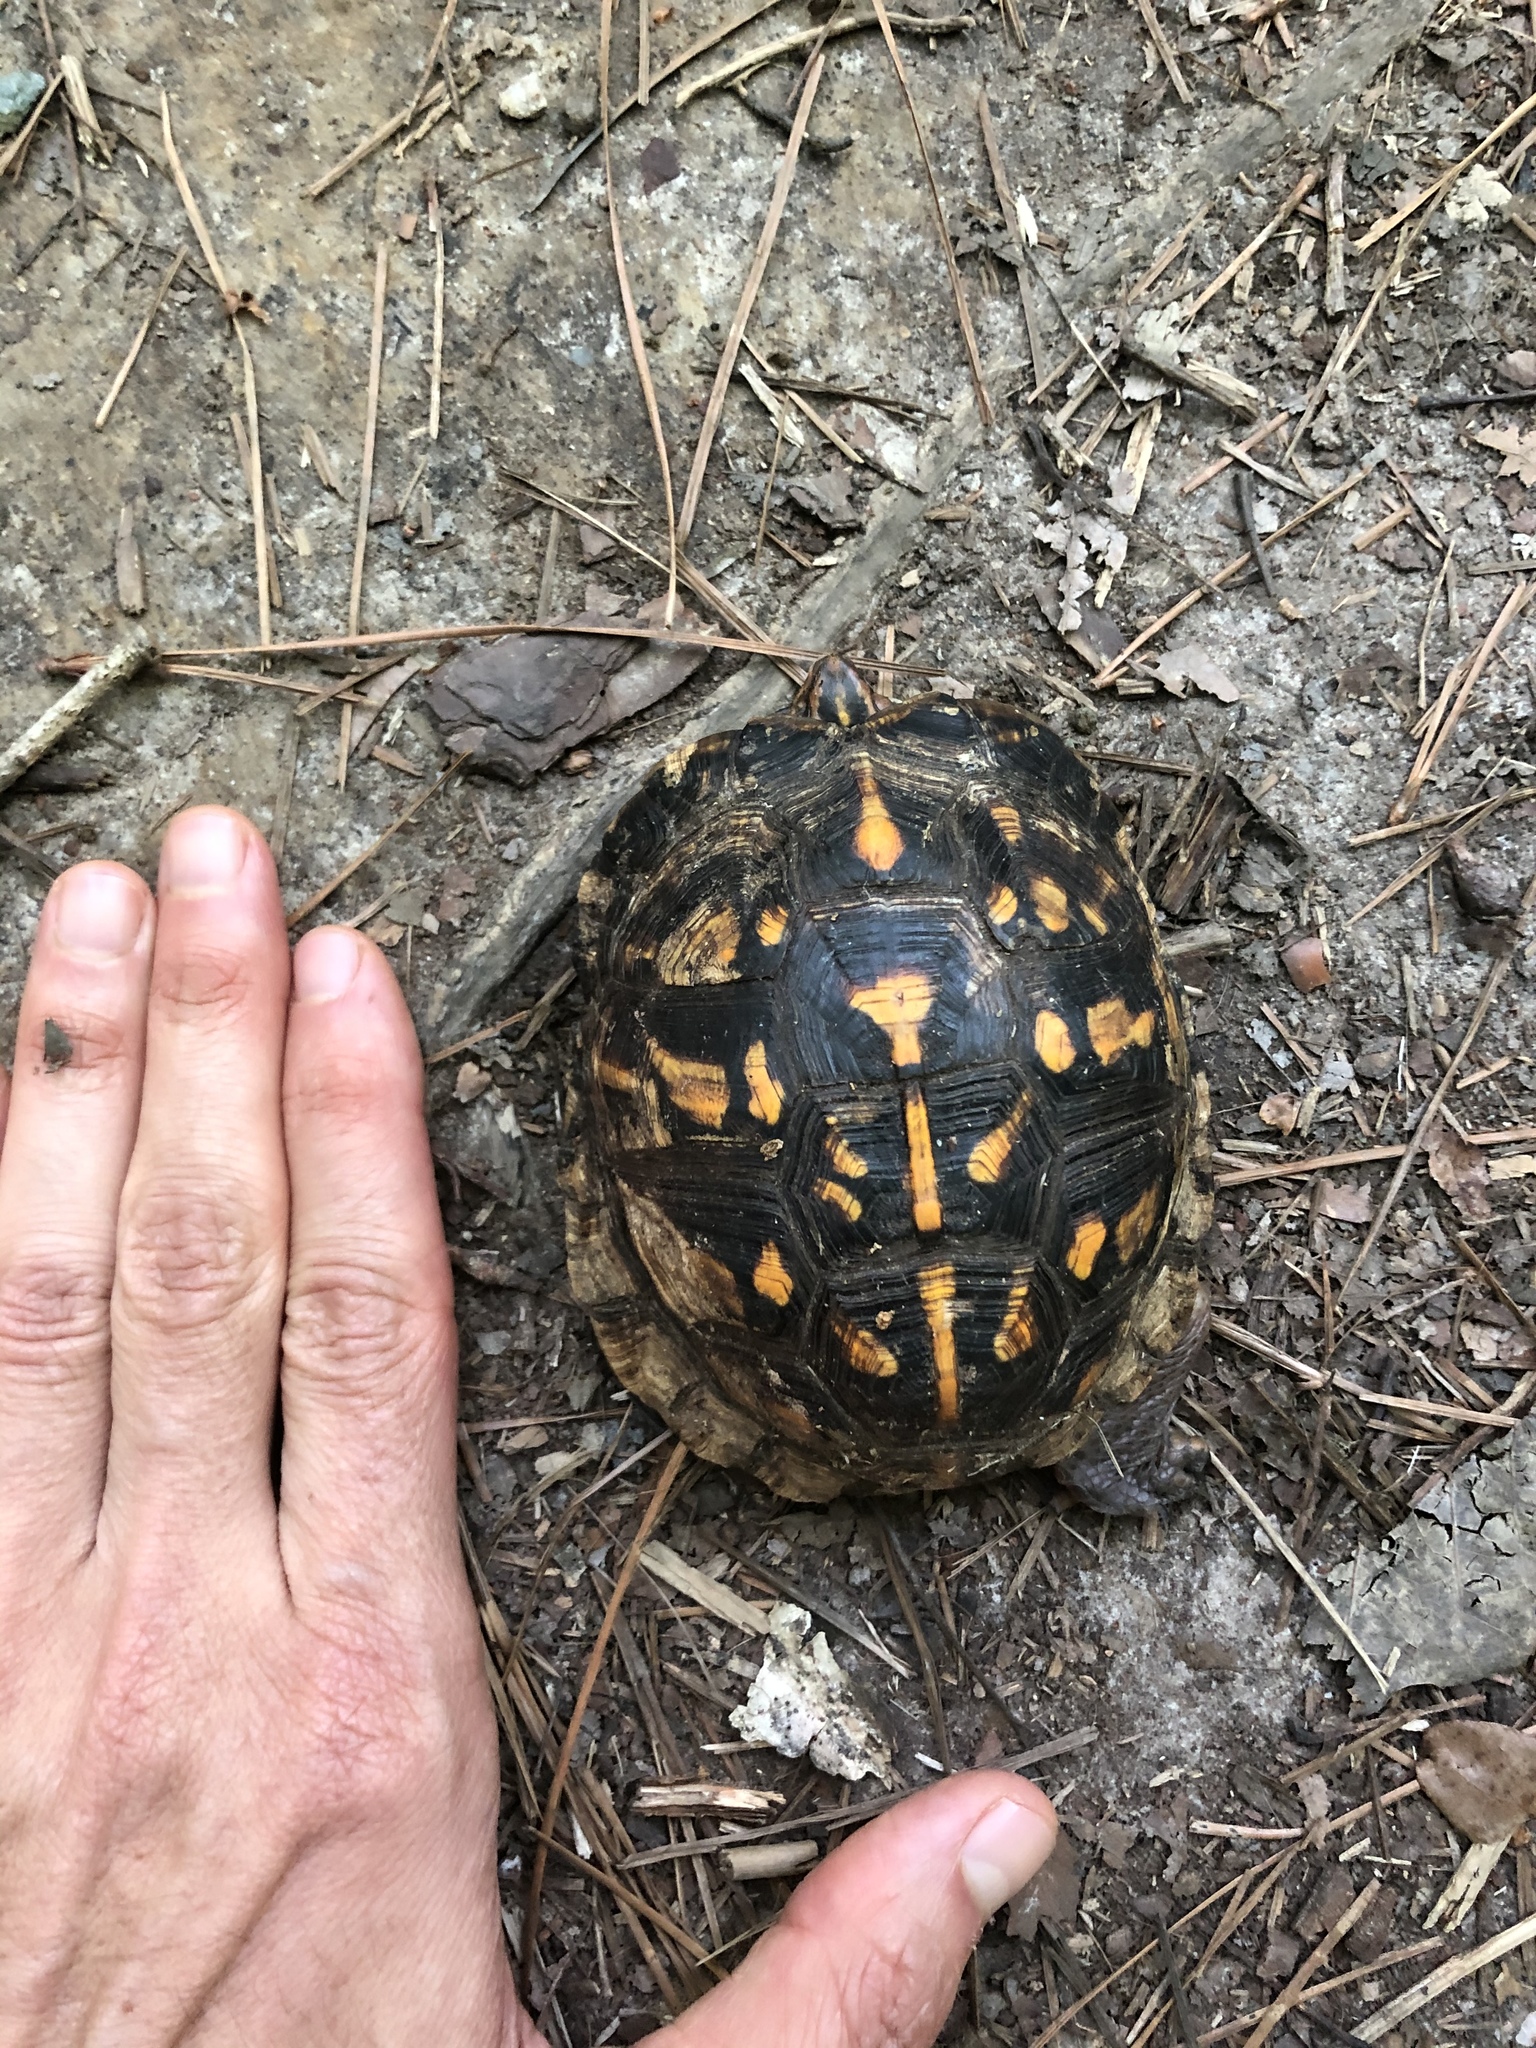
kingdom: Animalia
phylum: Chordata
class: Testudines
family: Emydidae
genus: Terrapene
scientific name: Terrapene carolina
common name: Common box turtle
